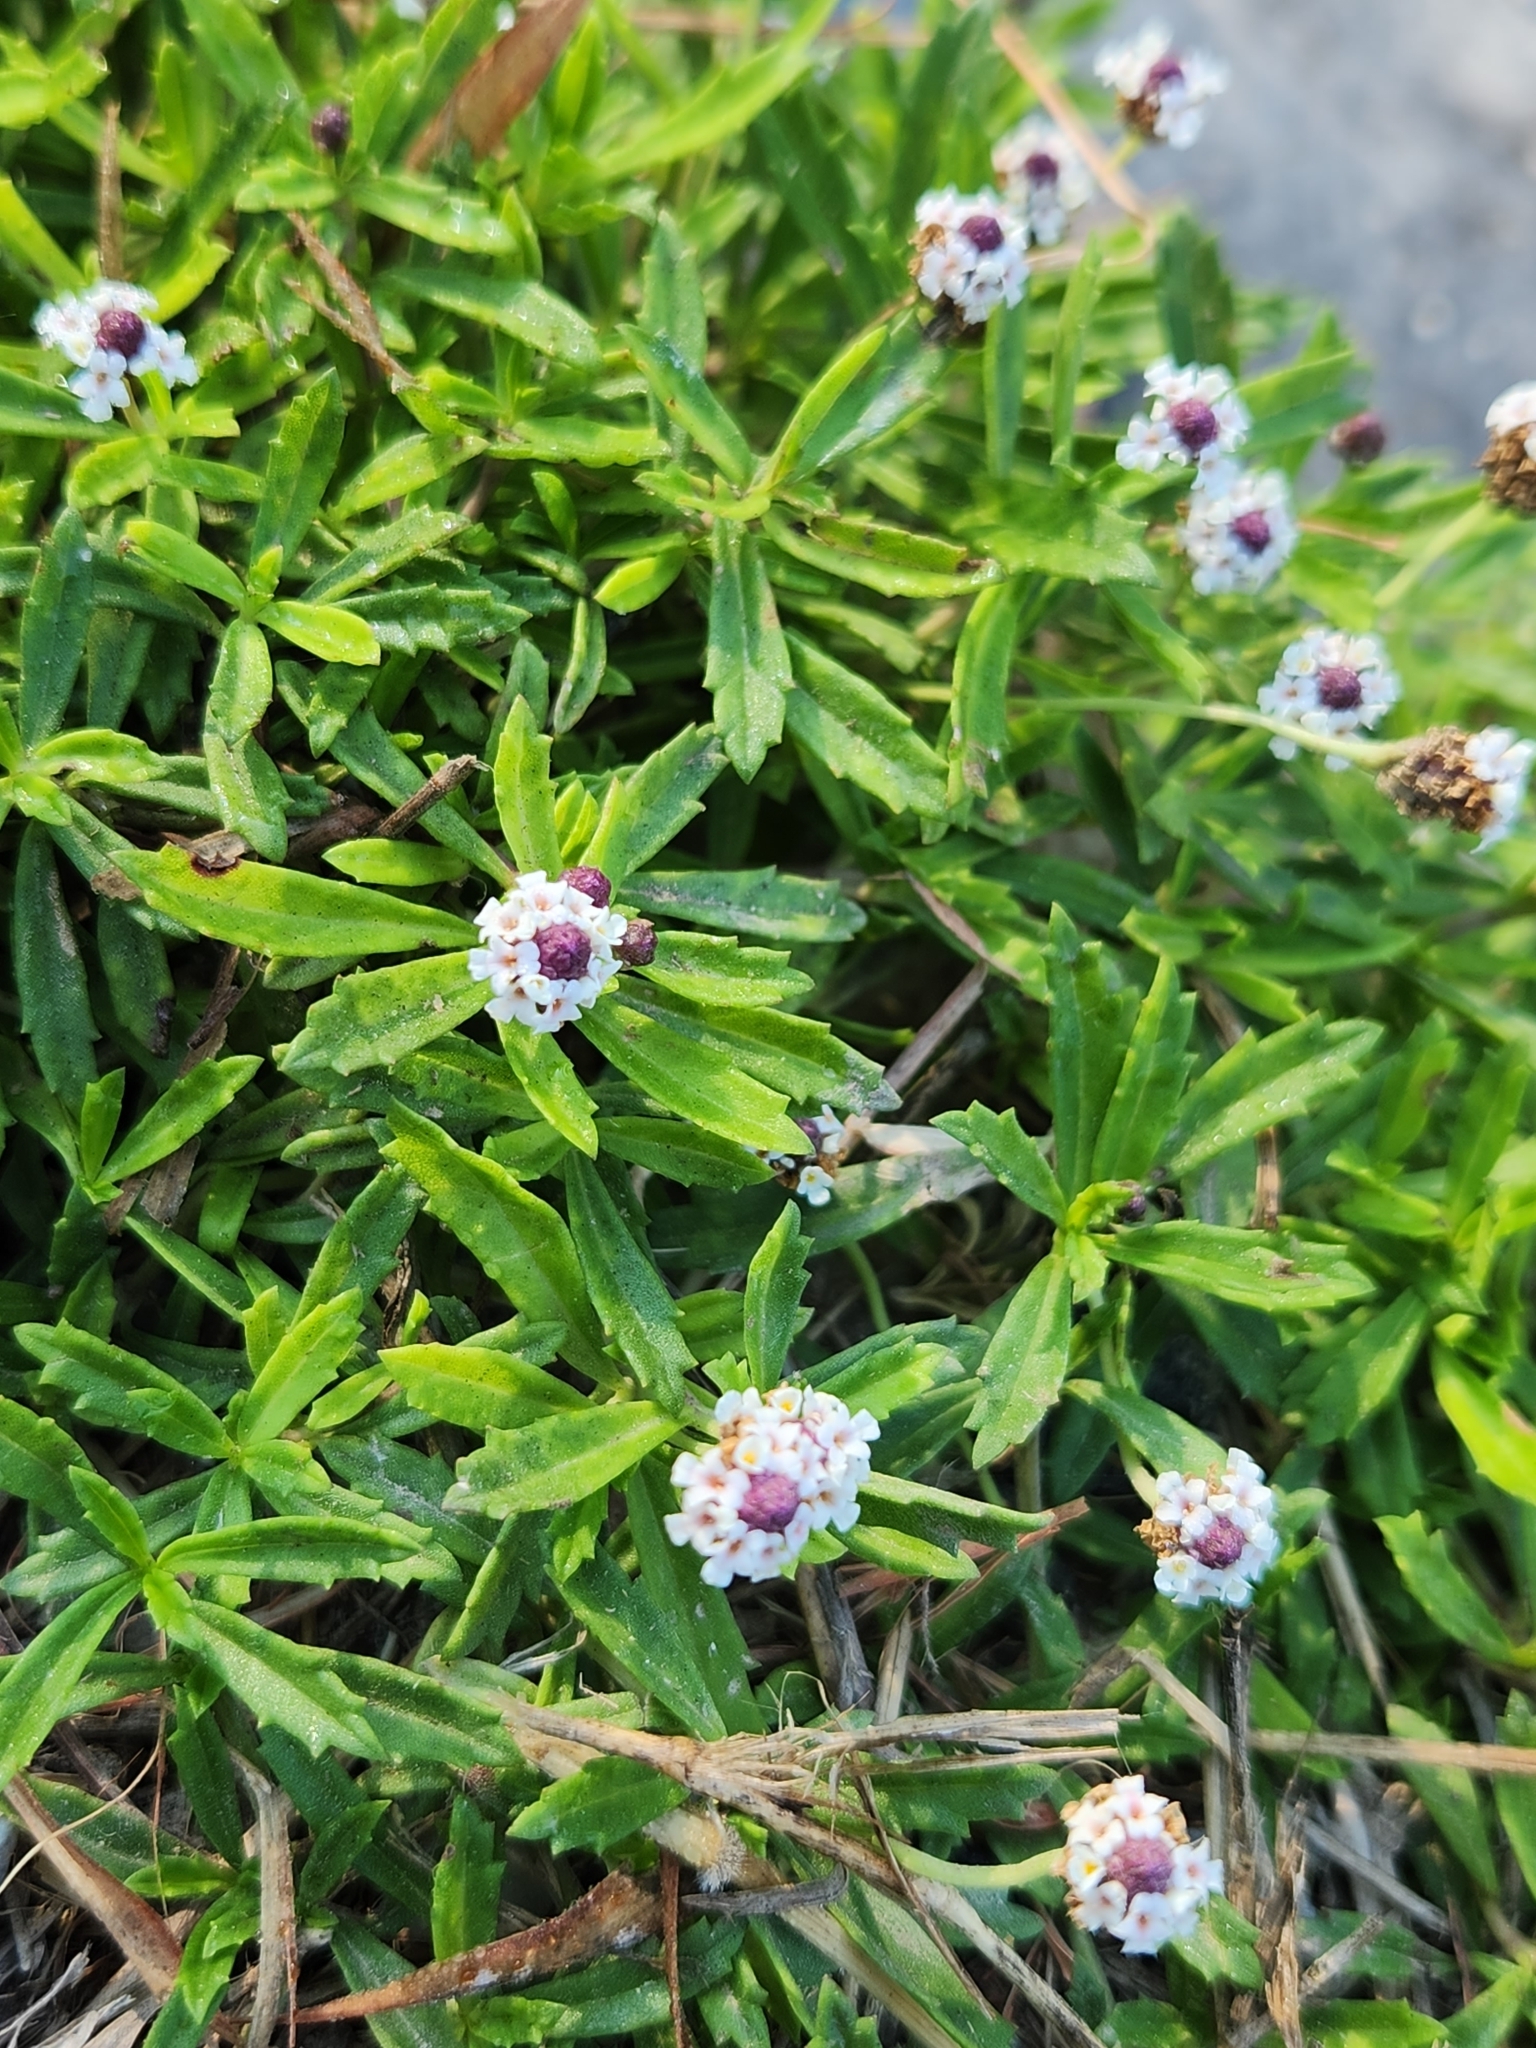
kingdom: Plantae
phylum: Tracheophyta
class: Magnoliopsida
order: Lamiales
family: Verbenaceae
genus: Phyla
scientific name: Phyla nodiflora
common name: Frogfruit
